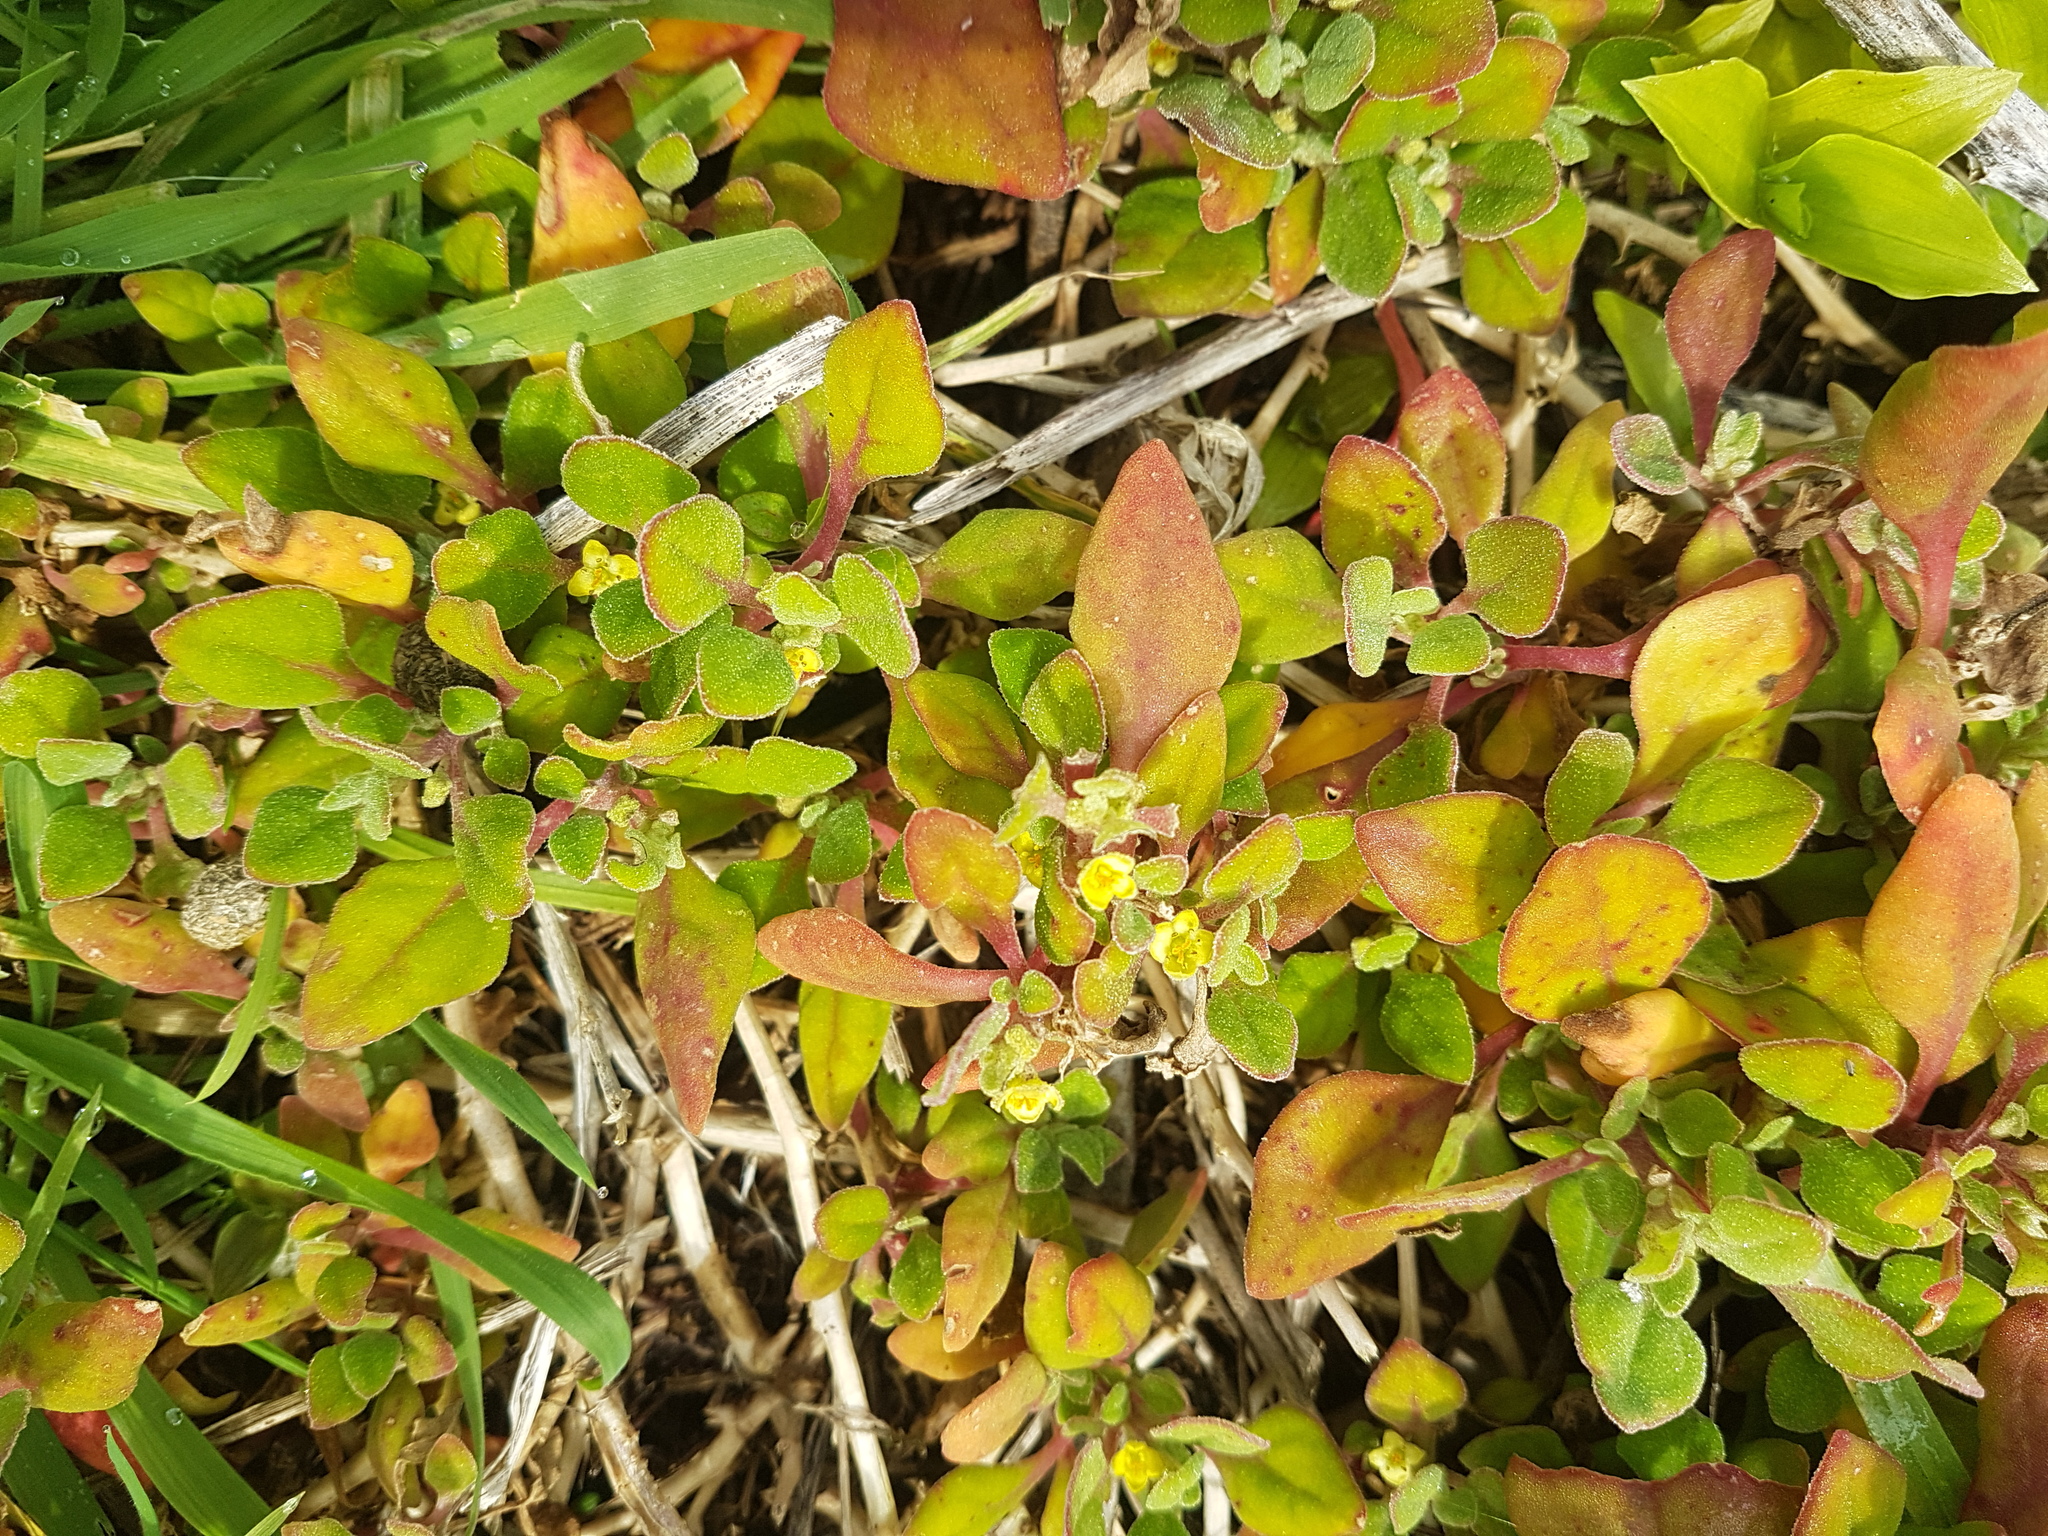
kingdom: Plantae
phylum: Tracheophyta
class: Magnoliopsida
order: Caryophyllales
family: Aizoaceae
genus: Tetragonia
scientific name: Tetragonia implexicoma
